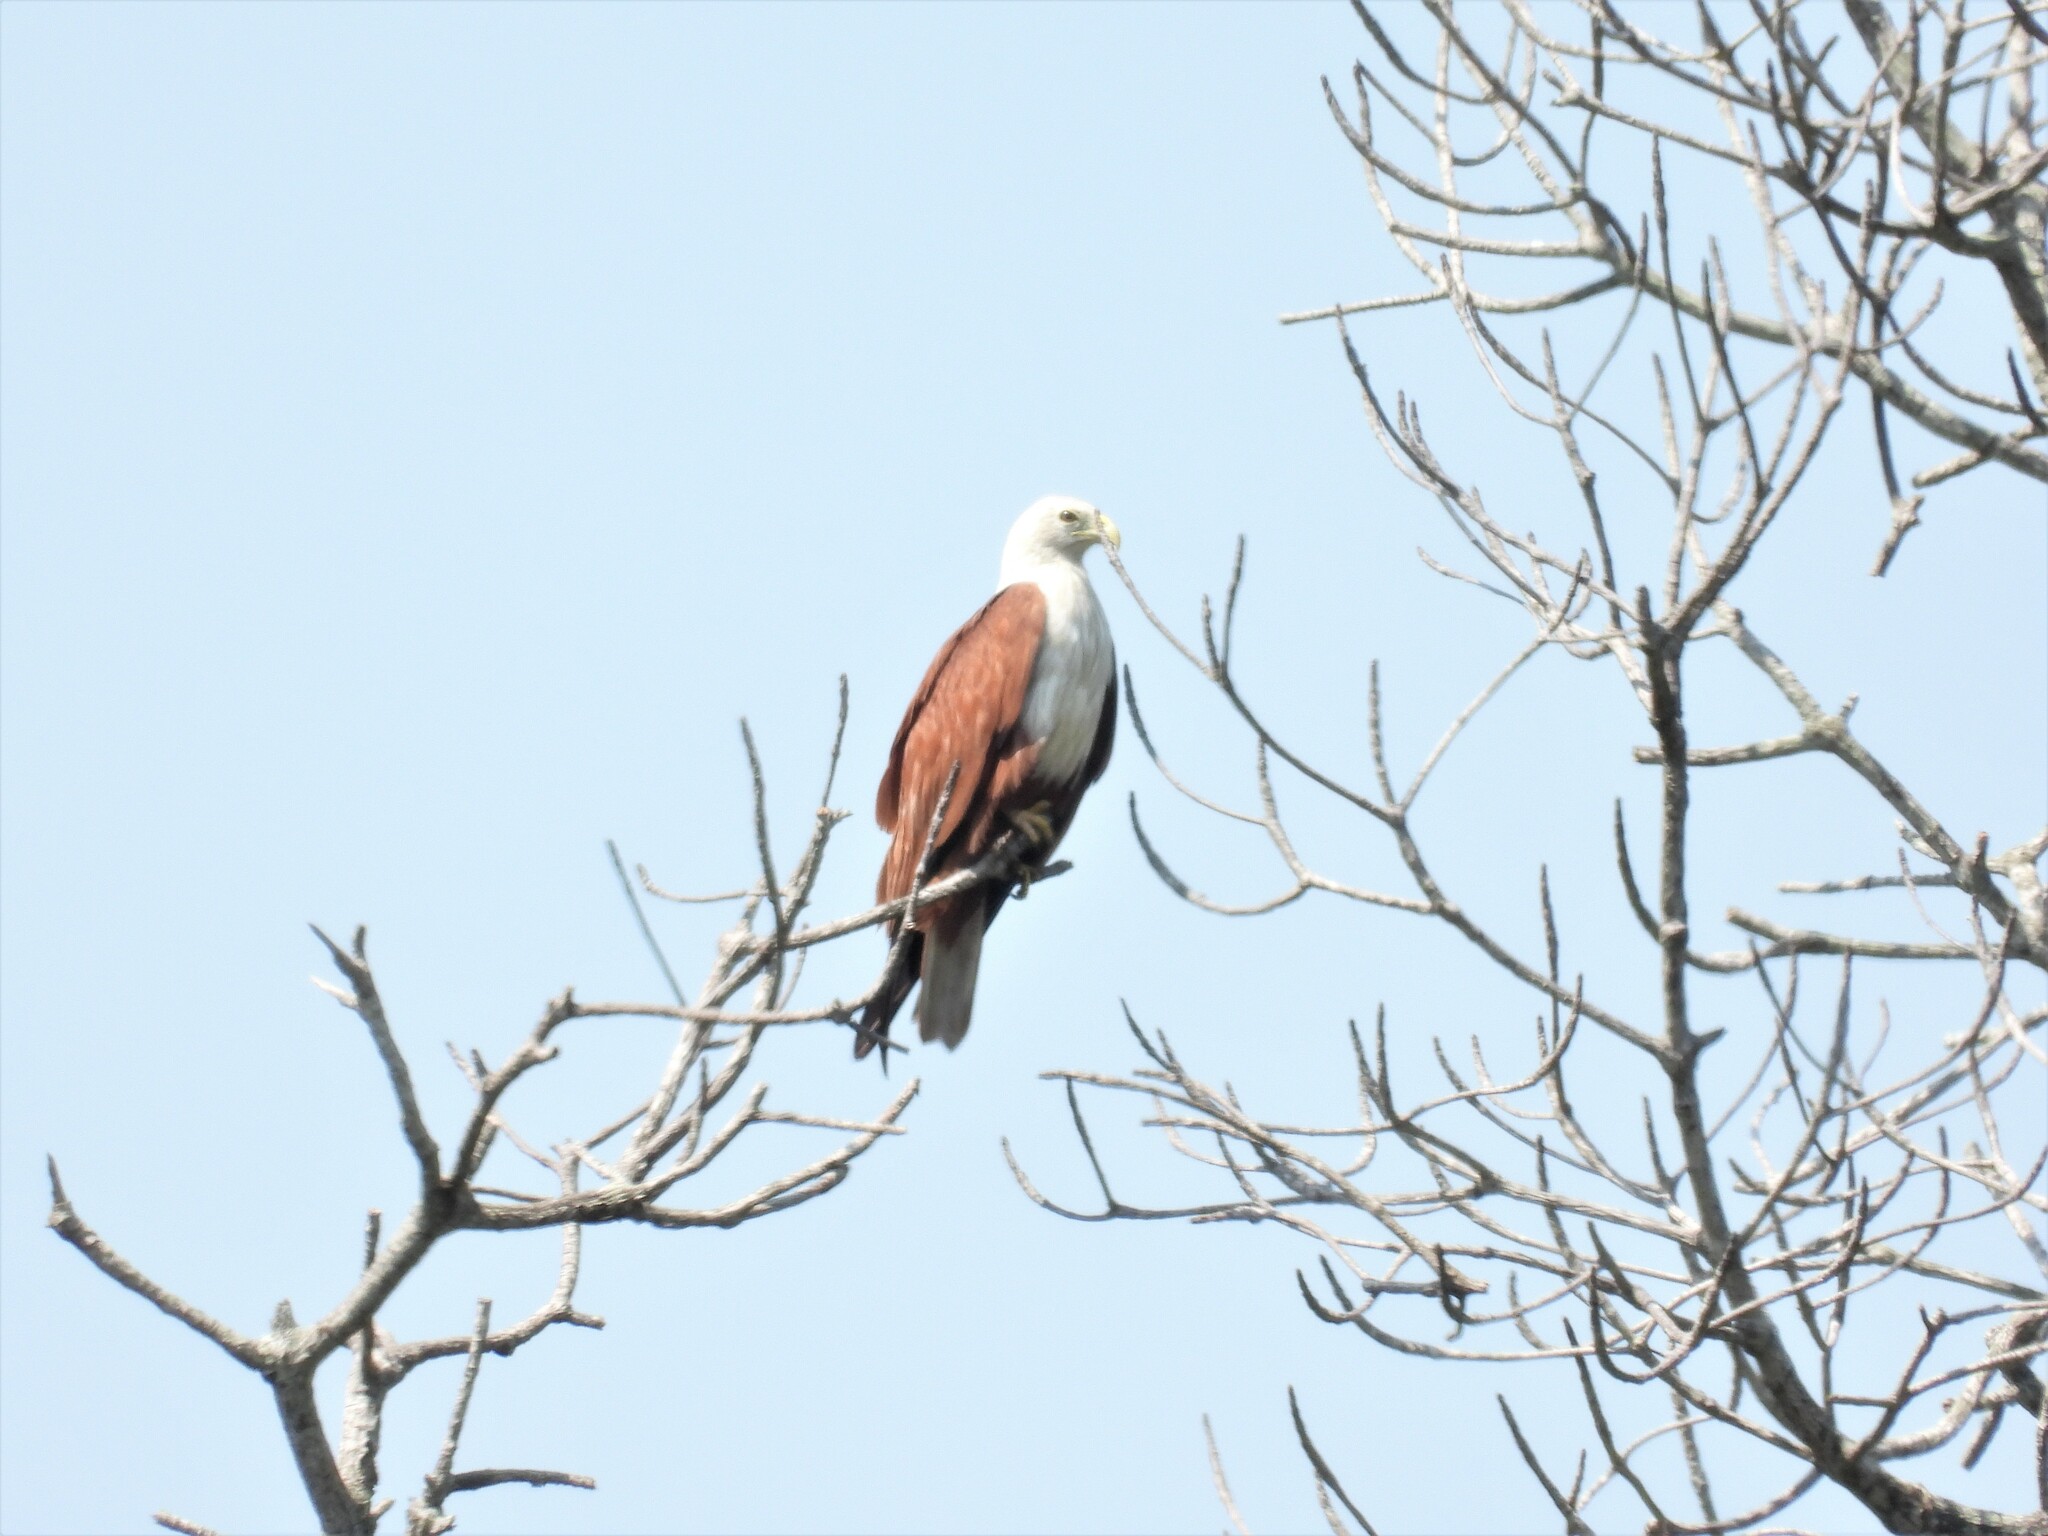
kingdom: Animalia
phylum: Chordata
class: Aves
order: Accipitriformes
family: Accipitridae
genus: Haliastur
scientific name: Haliastur indus
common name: Brahminy kite
